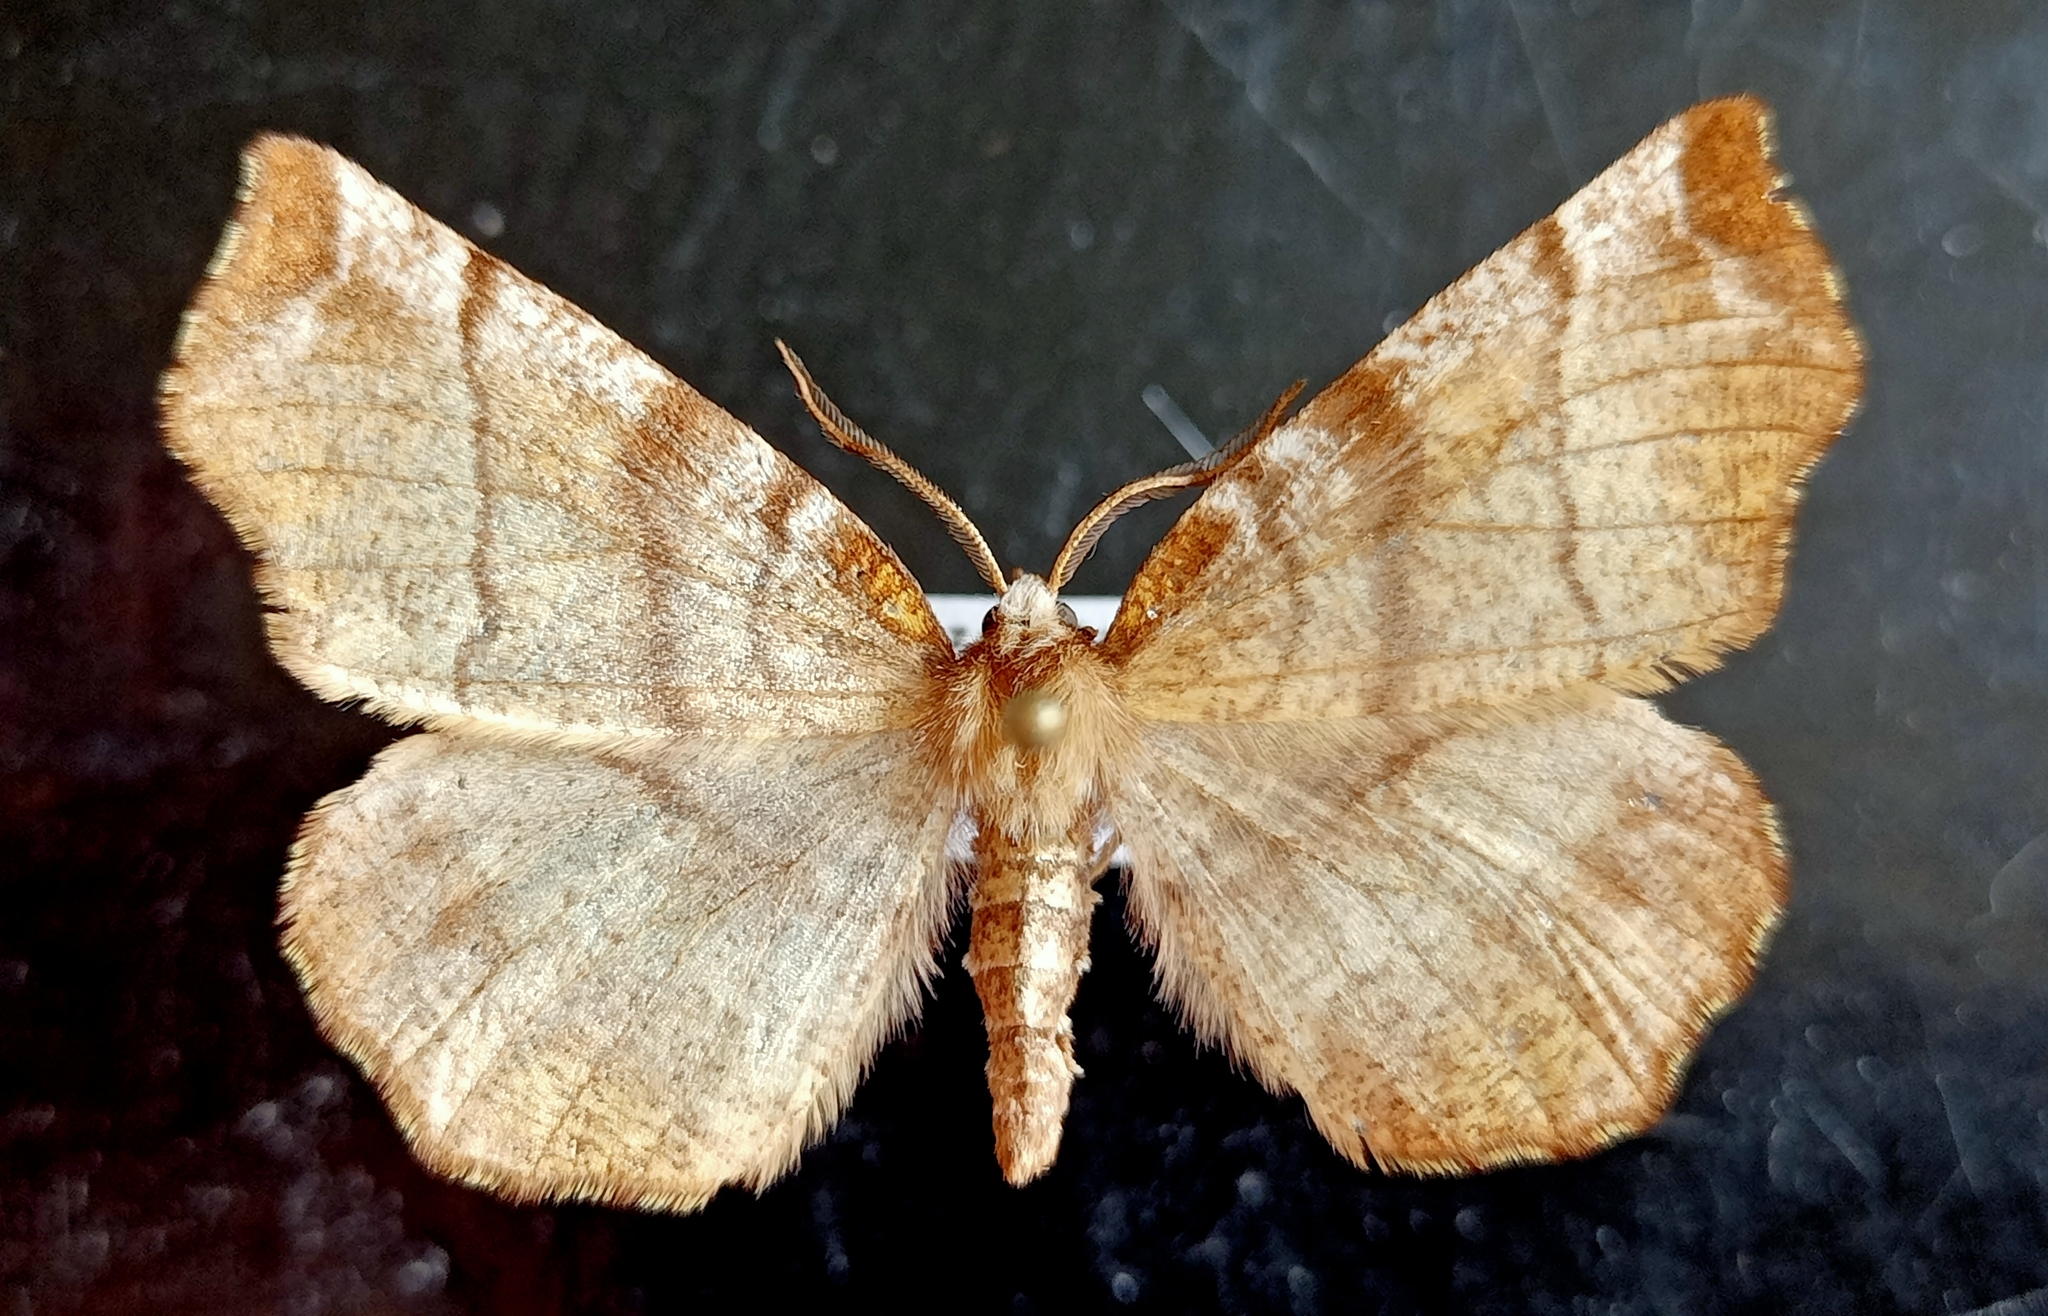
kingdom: Animalia
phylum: Arthropoda
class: Insecta
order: Lepidoptera
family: Geometridae
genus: Selenia
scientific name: Selenia dentaria
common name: Early thorn
